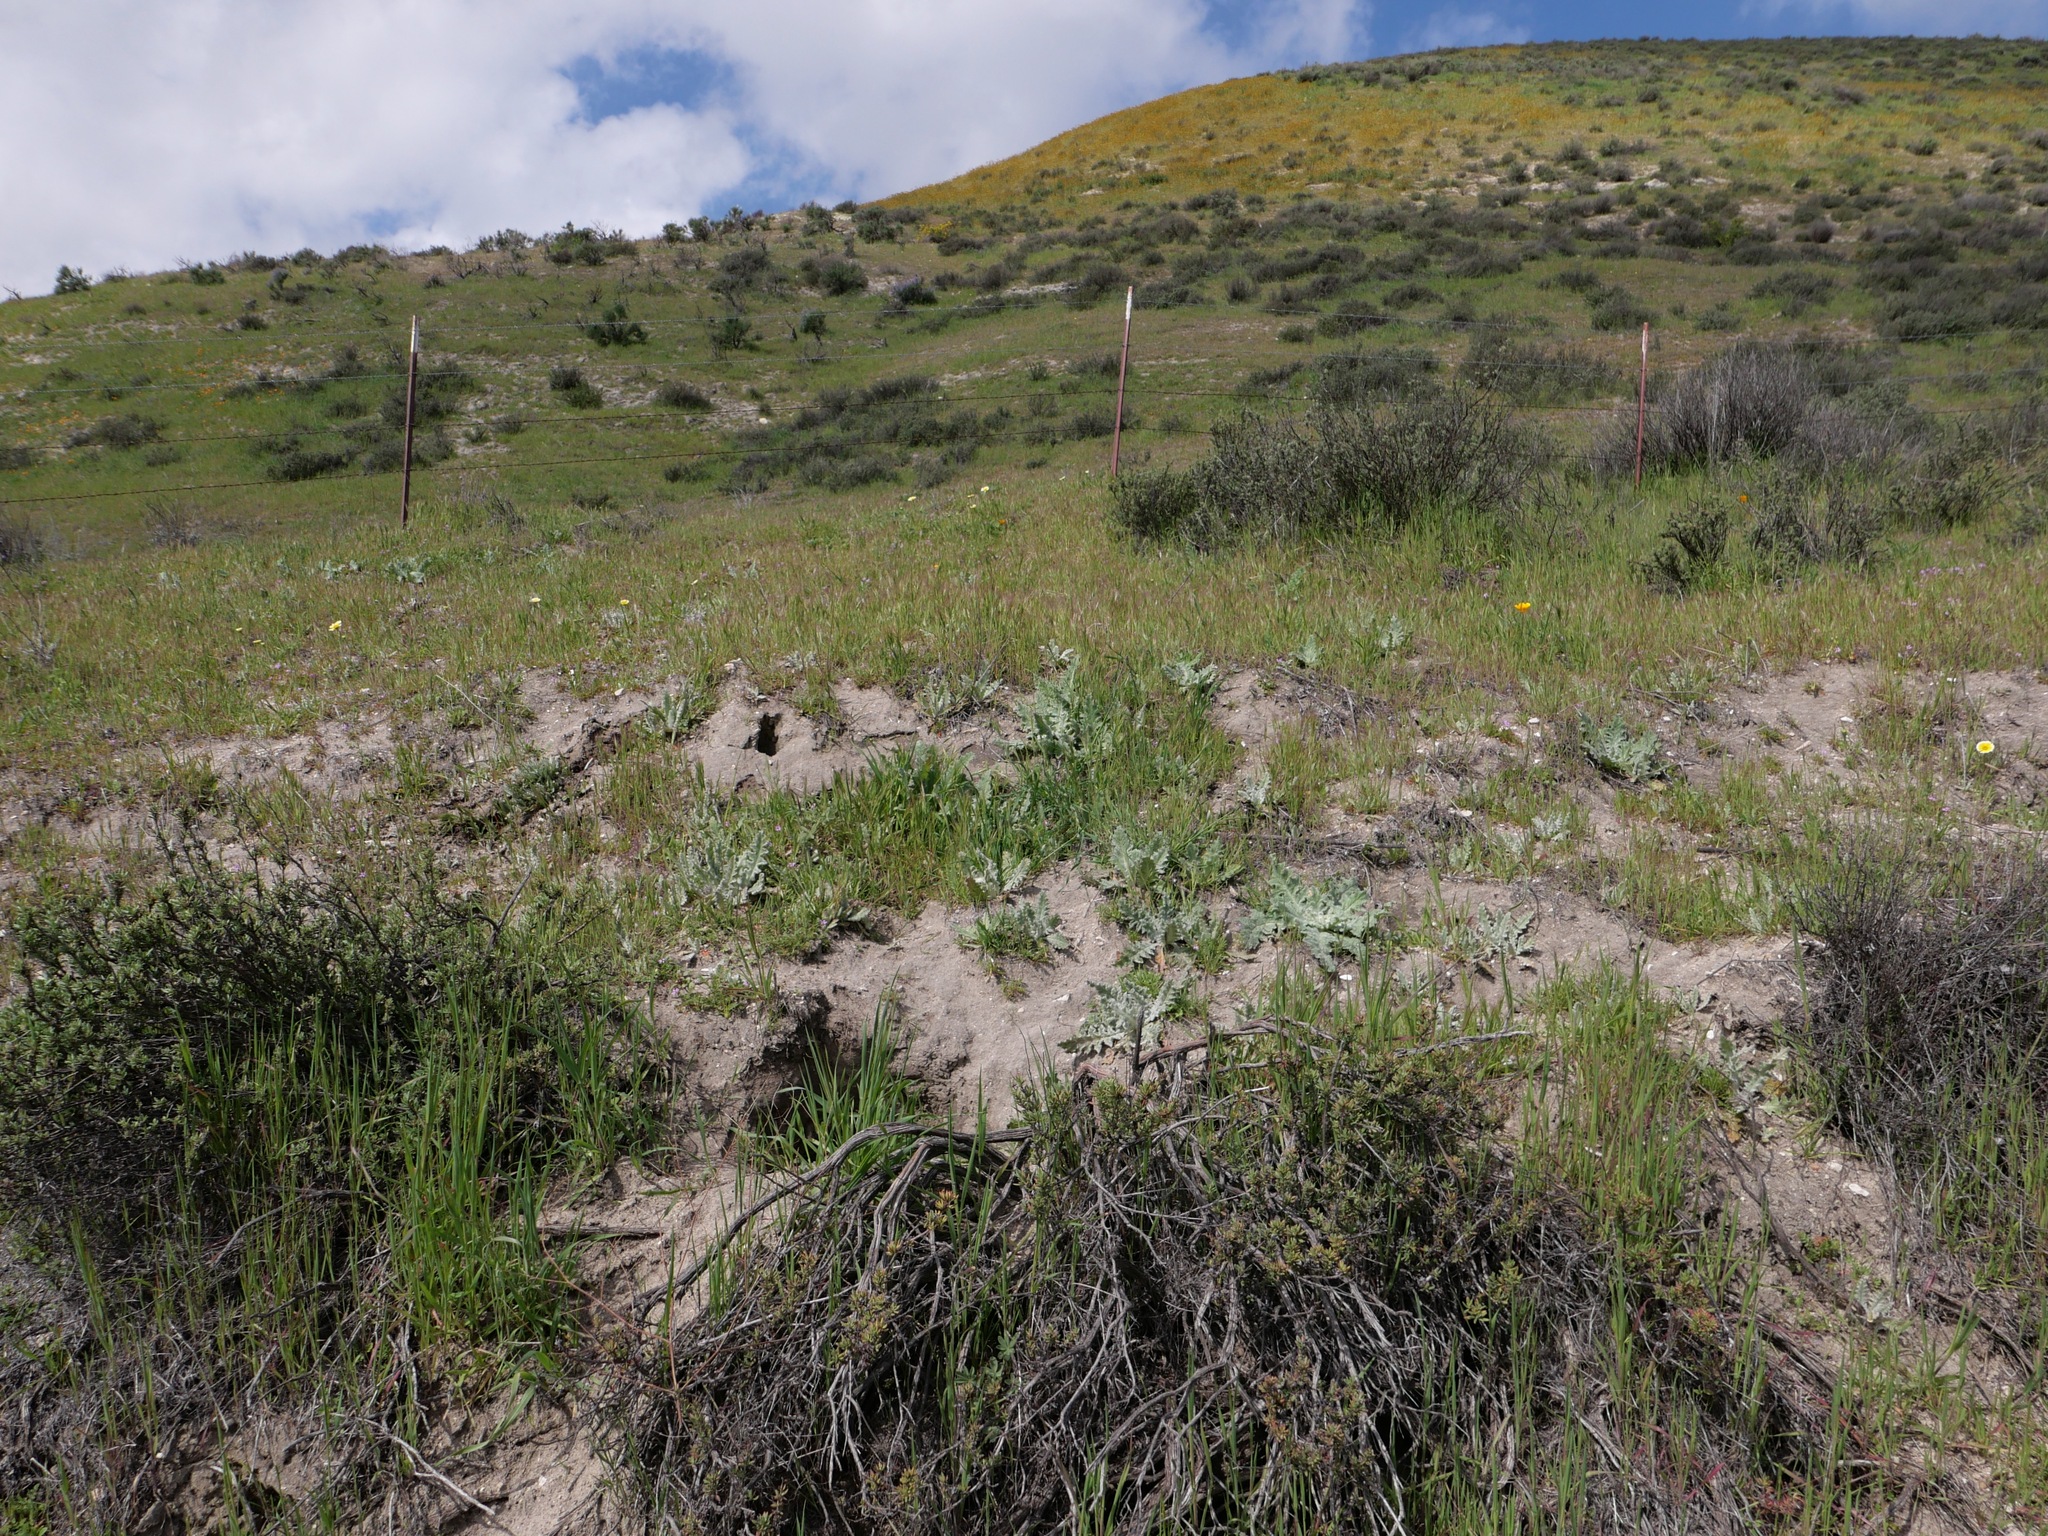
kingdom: Plantae
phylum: Tracheophyta
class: Magnoliopsida
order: Lamiales
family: Lamiaceae
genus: Salvia
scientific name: Salvia carduacea
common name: Thistle sage
